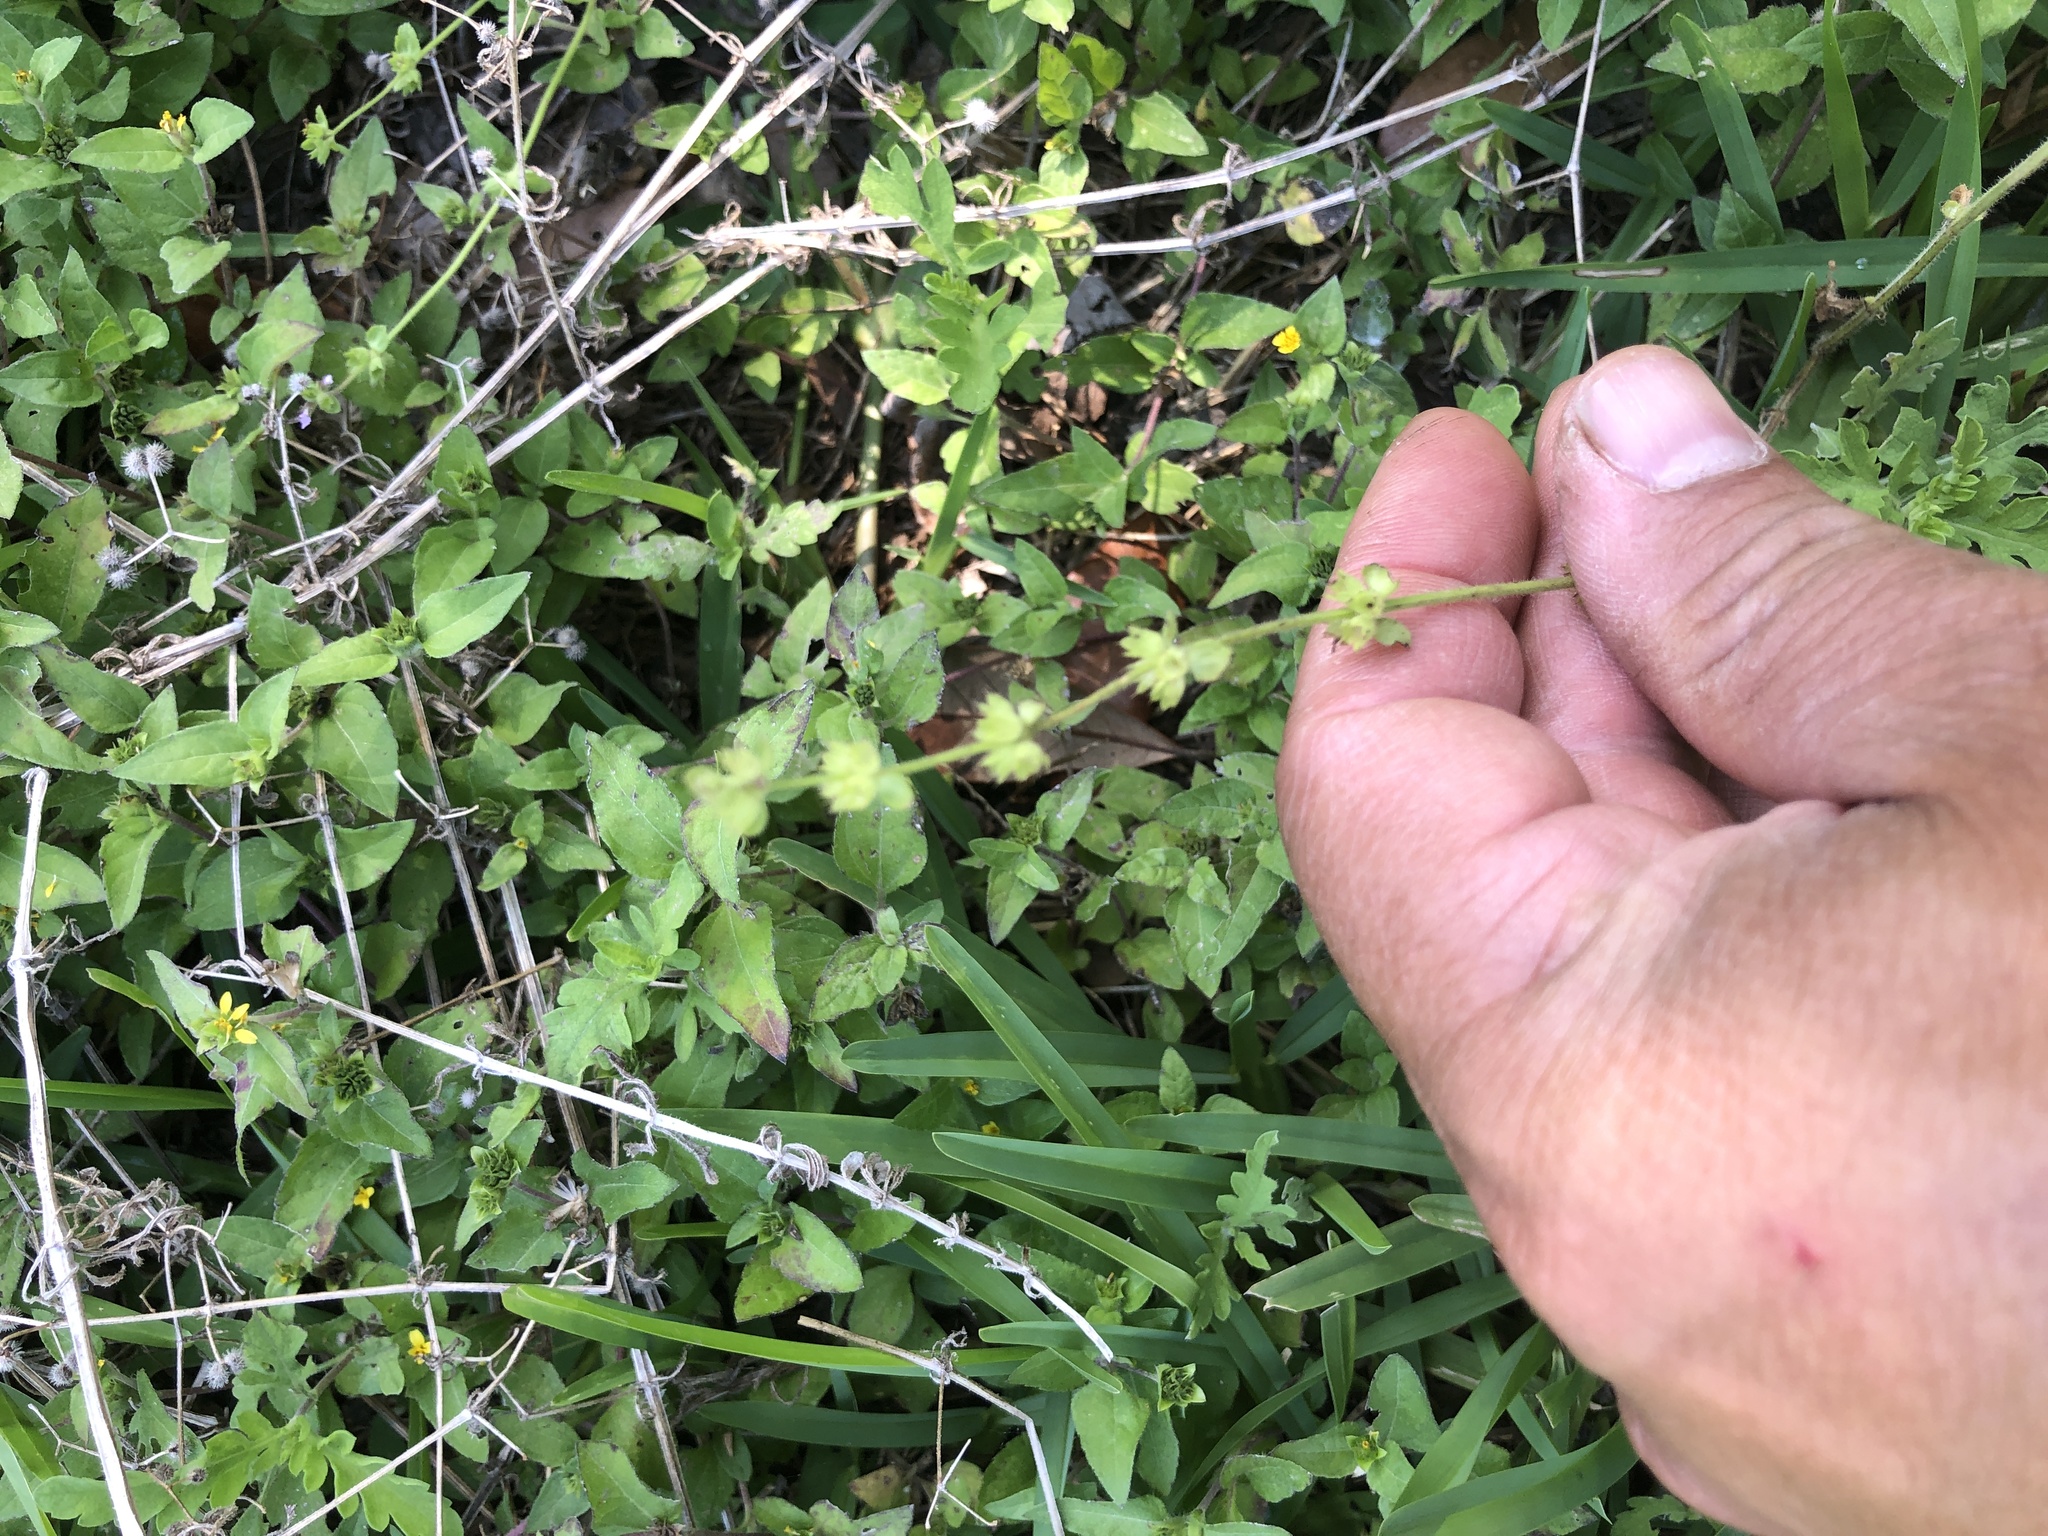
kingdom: Plantae
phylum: Tracheophyta
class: Magnoliopsida
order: Lamiales
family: Lamiaceae
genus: Stachys
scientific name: Stachys
